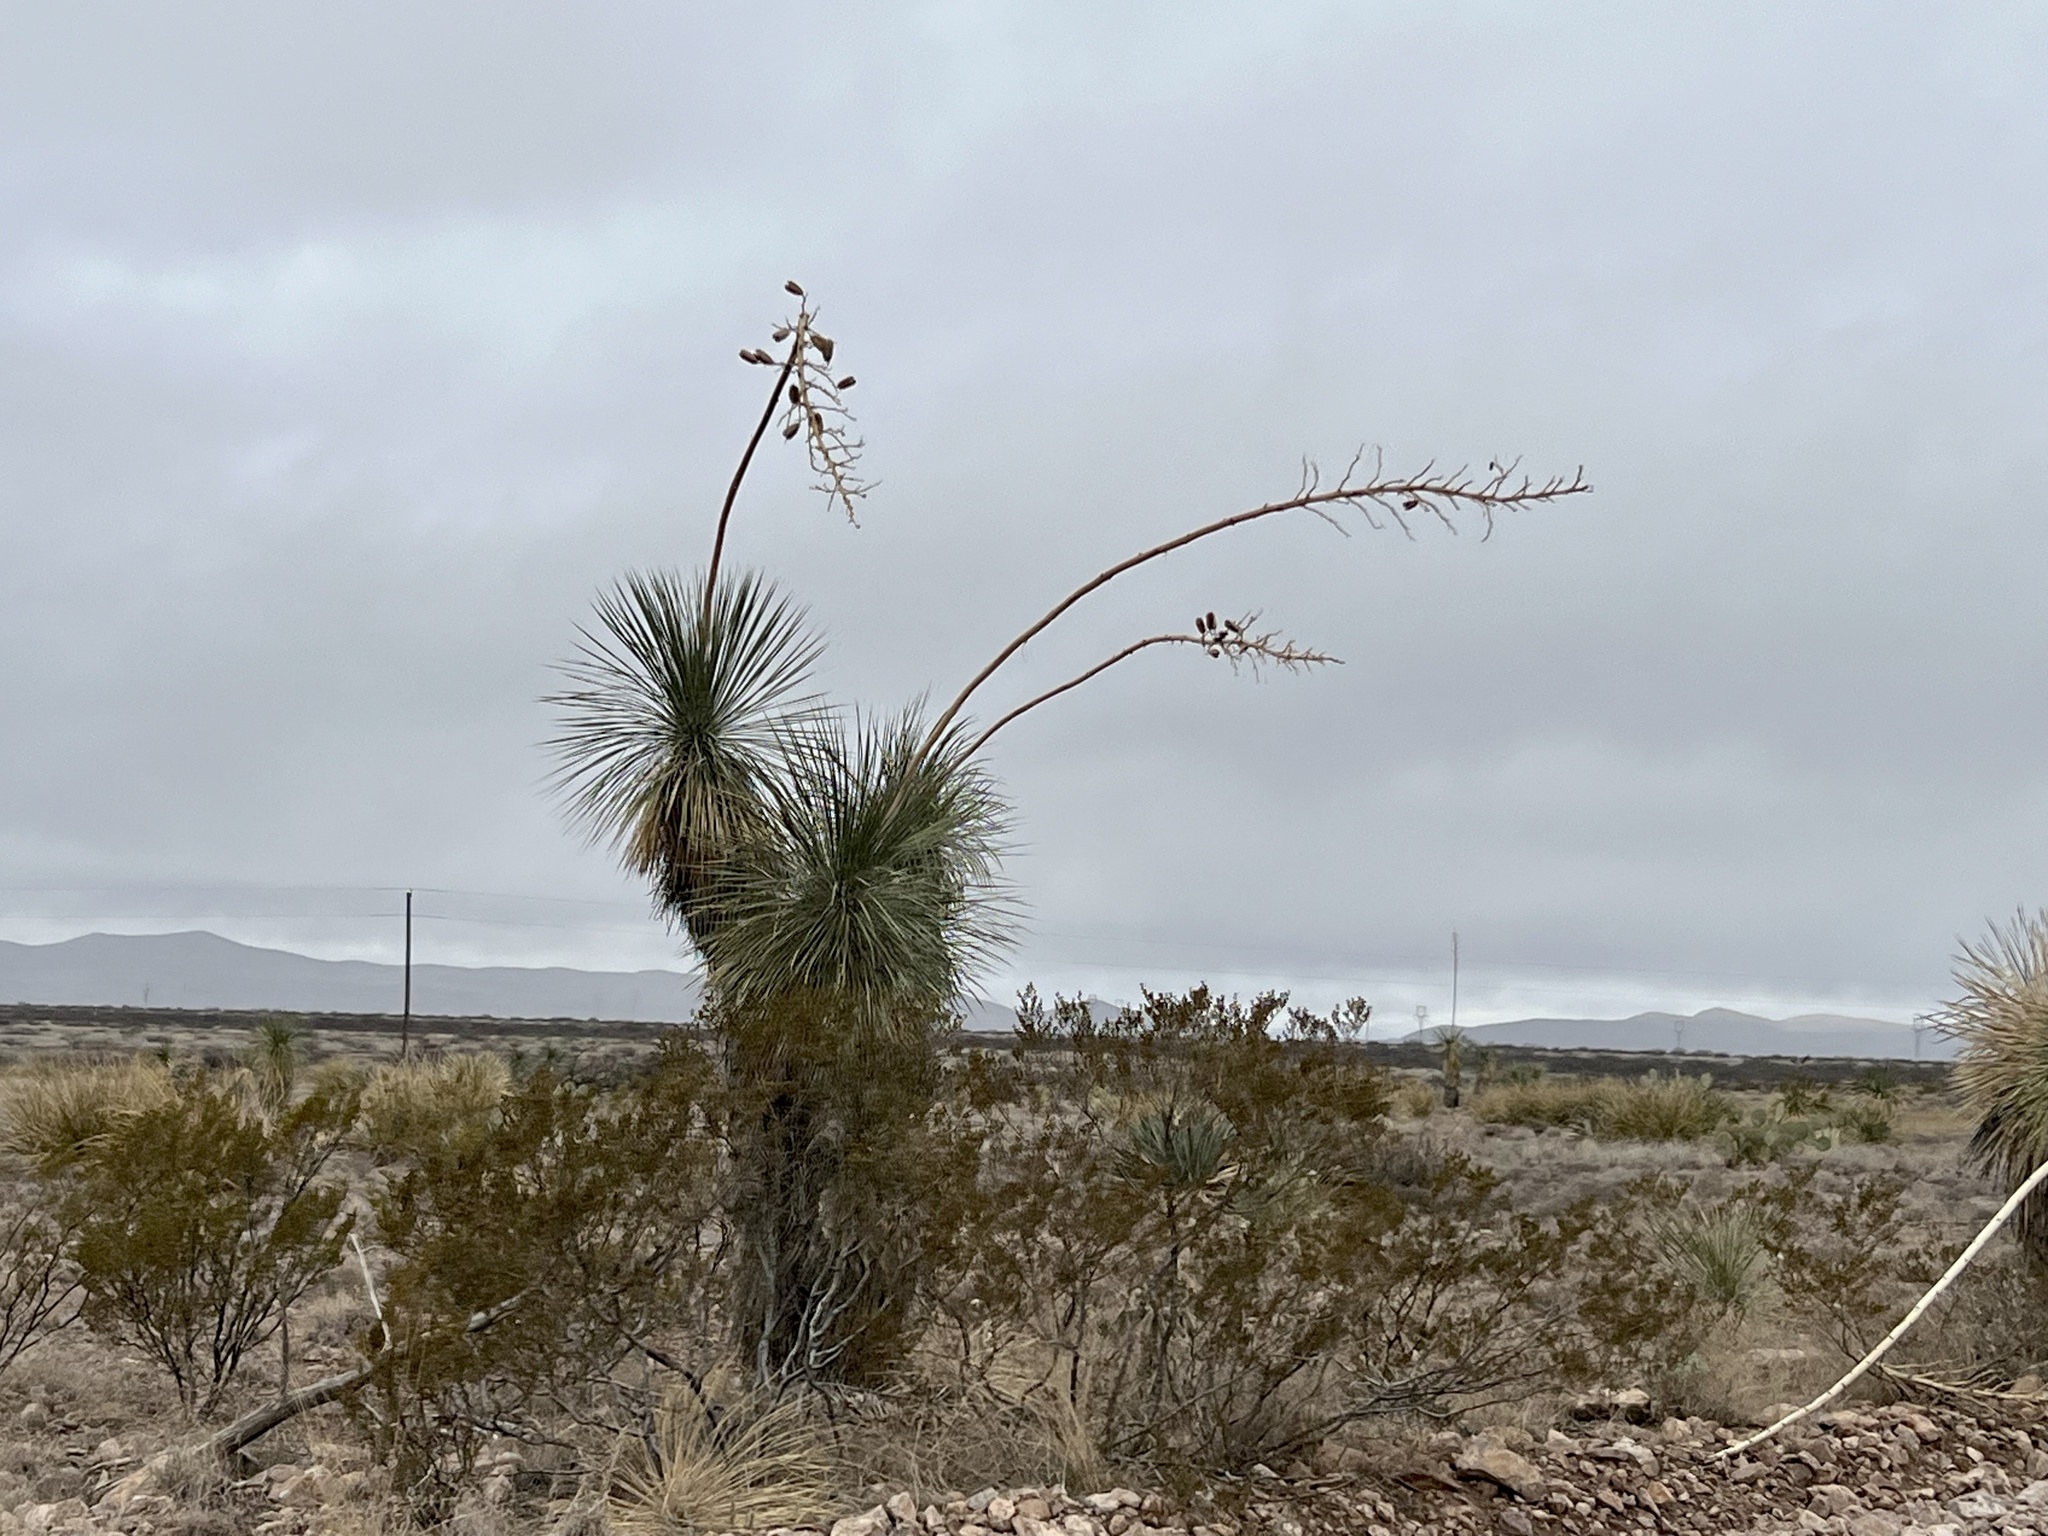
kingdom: Plantae
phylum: Tracheophyta
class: Liliopsida
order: Asparagales
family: Asparagaceae
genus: Yucca
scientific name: Yucca elata
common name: Palmella
